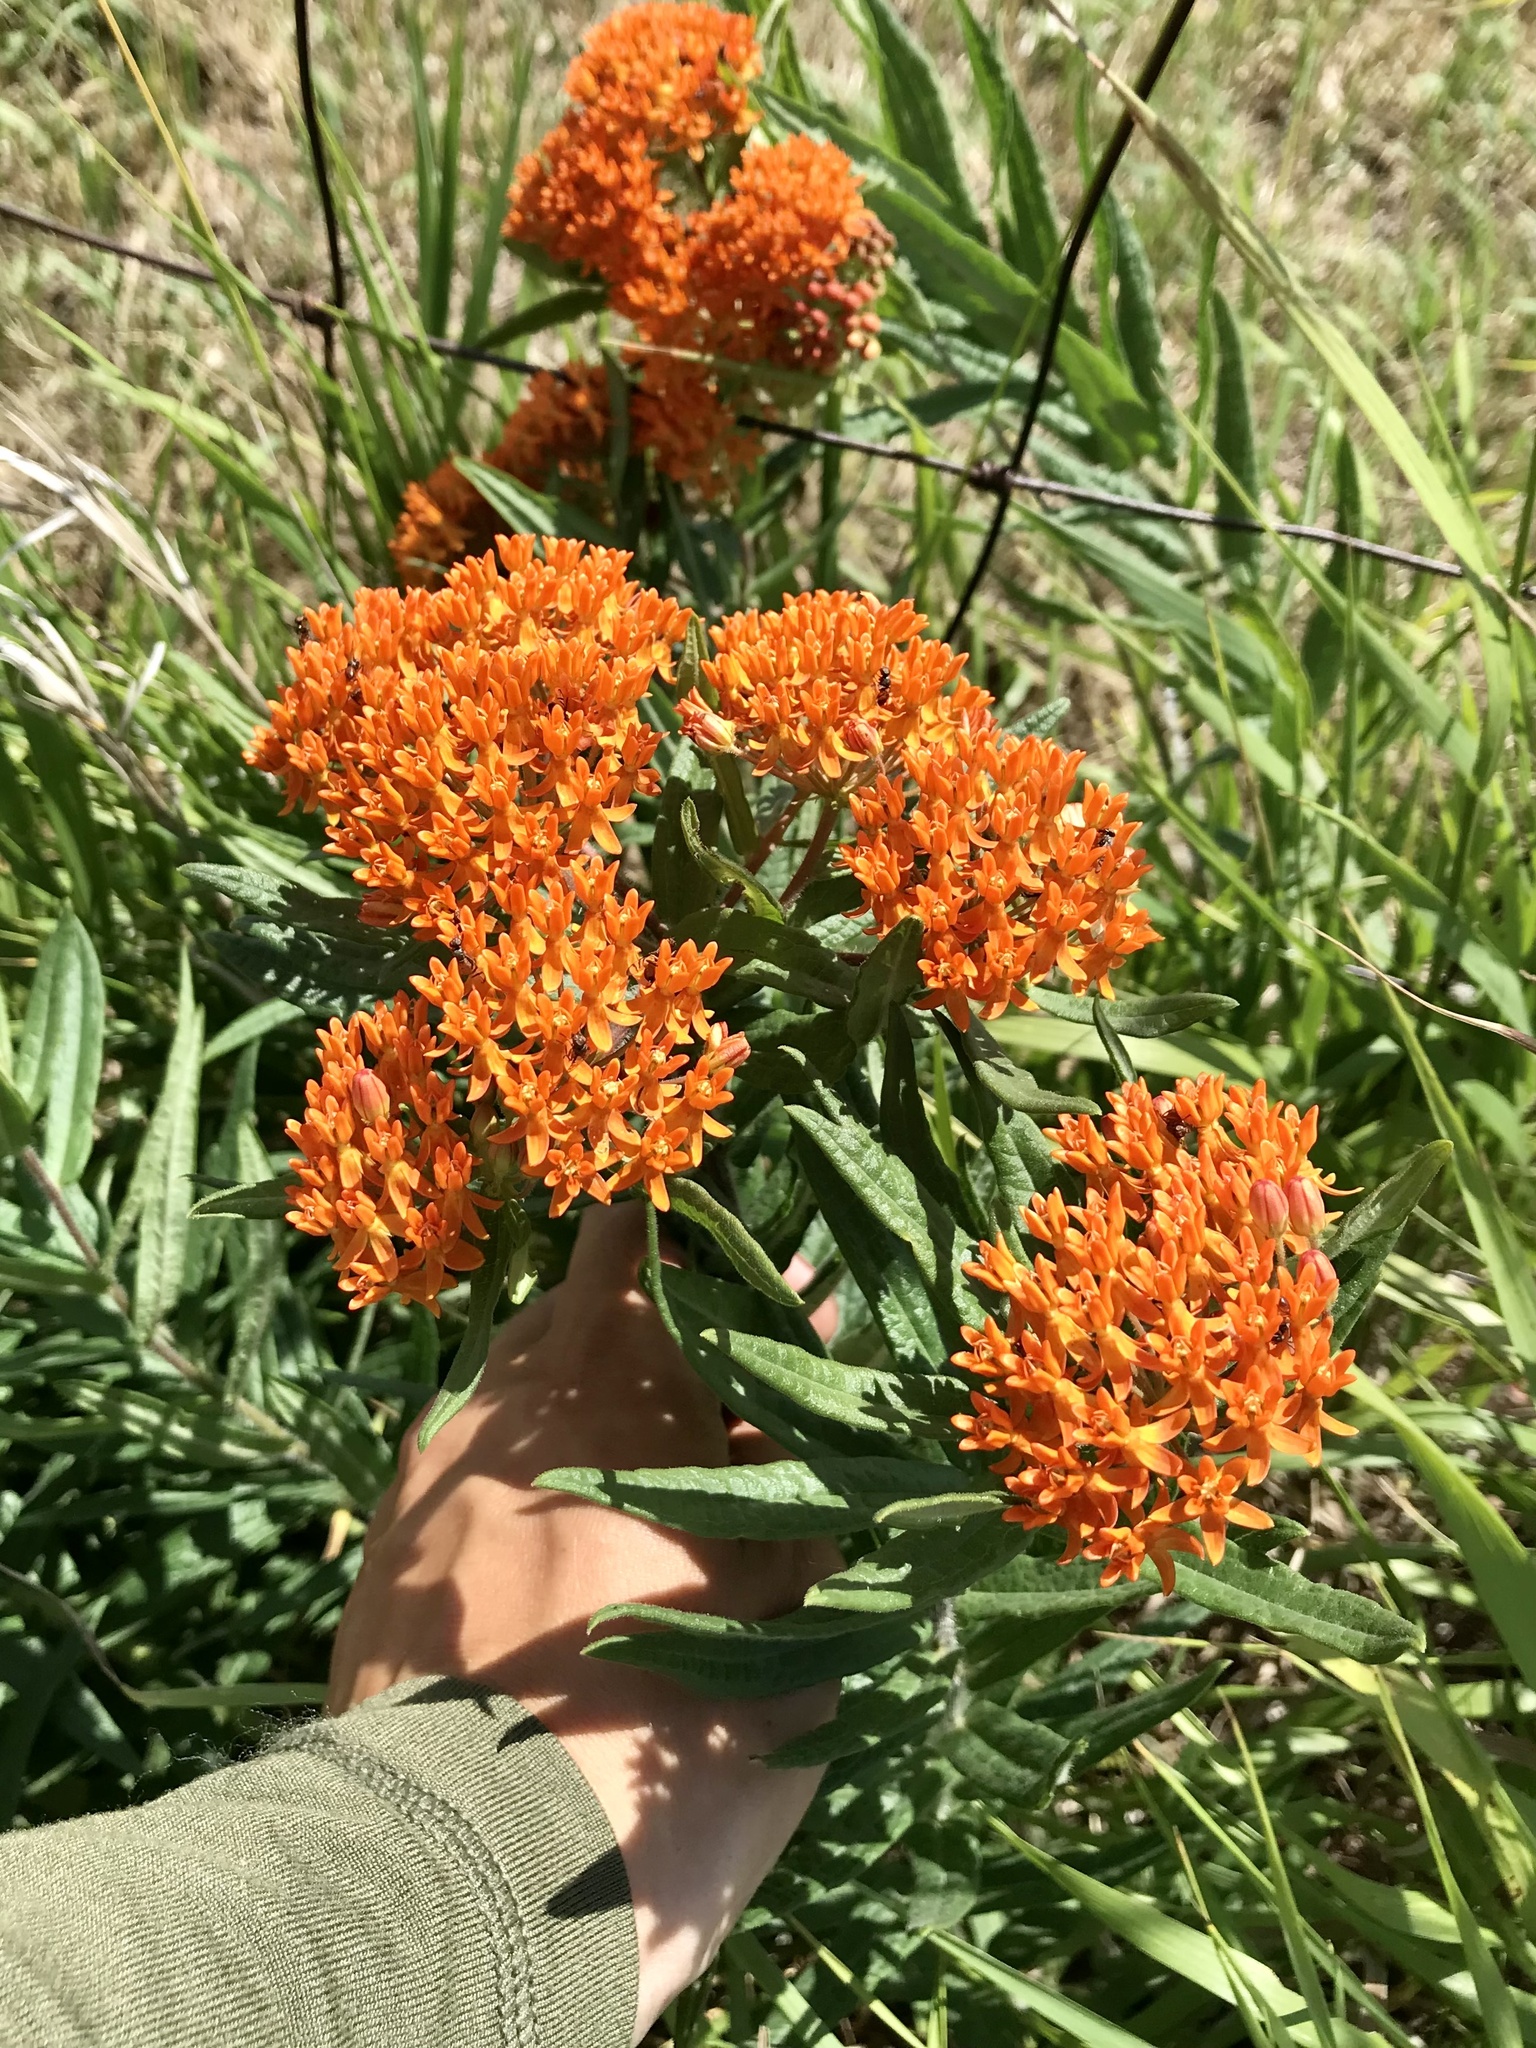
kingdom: Plantae
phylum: Tracheophyta
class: Magnoliopsida
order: Gentianales
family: Apocynaceae
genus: Asclepias
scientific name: Asclepias tuberosa
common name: Butterfly milkweed
